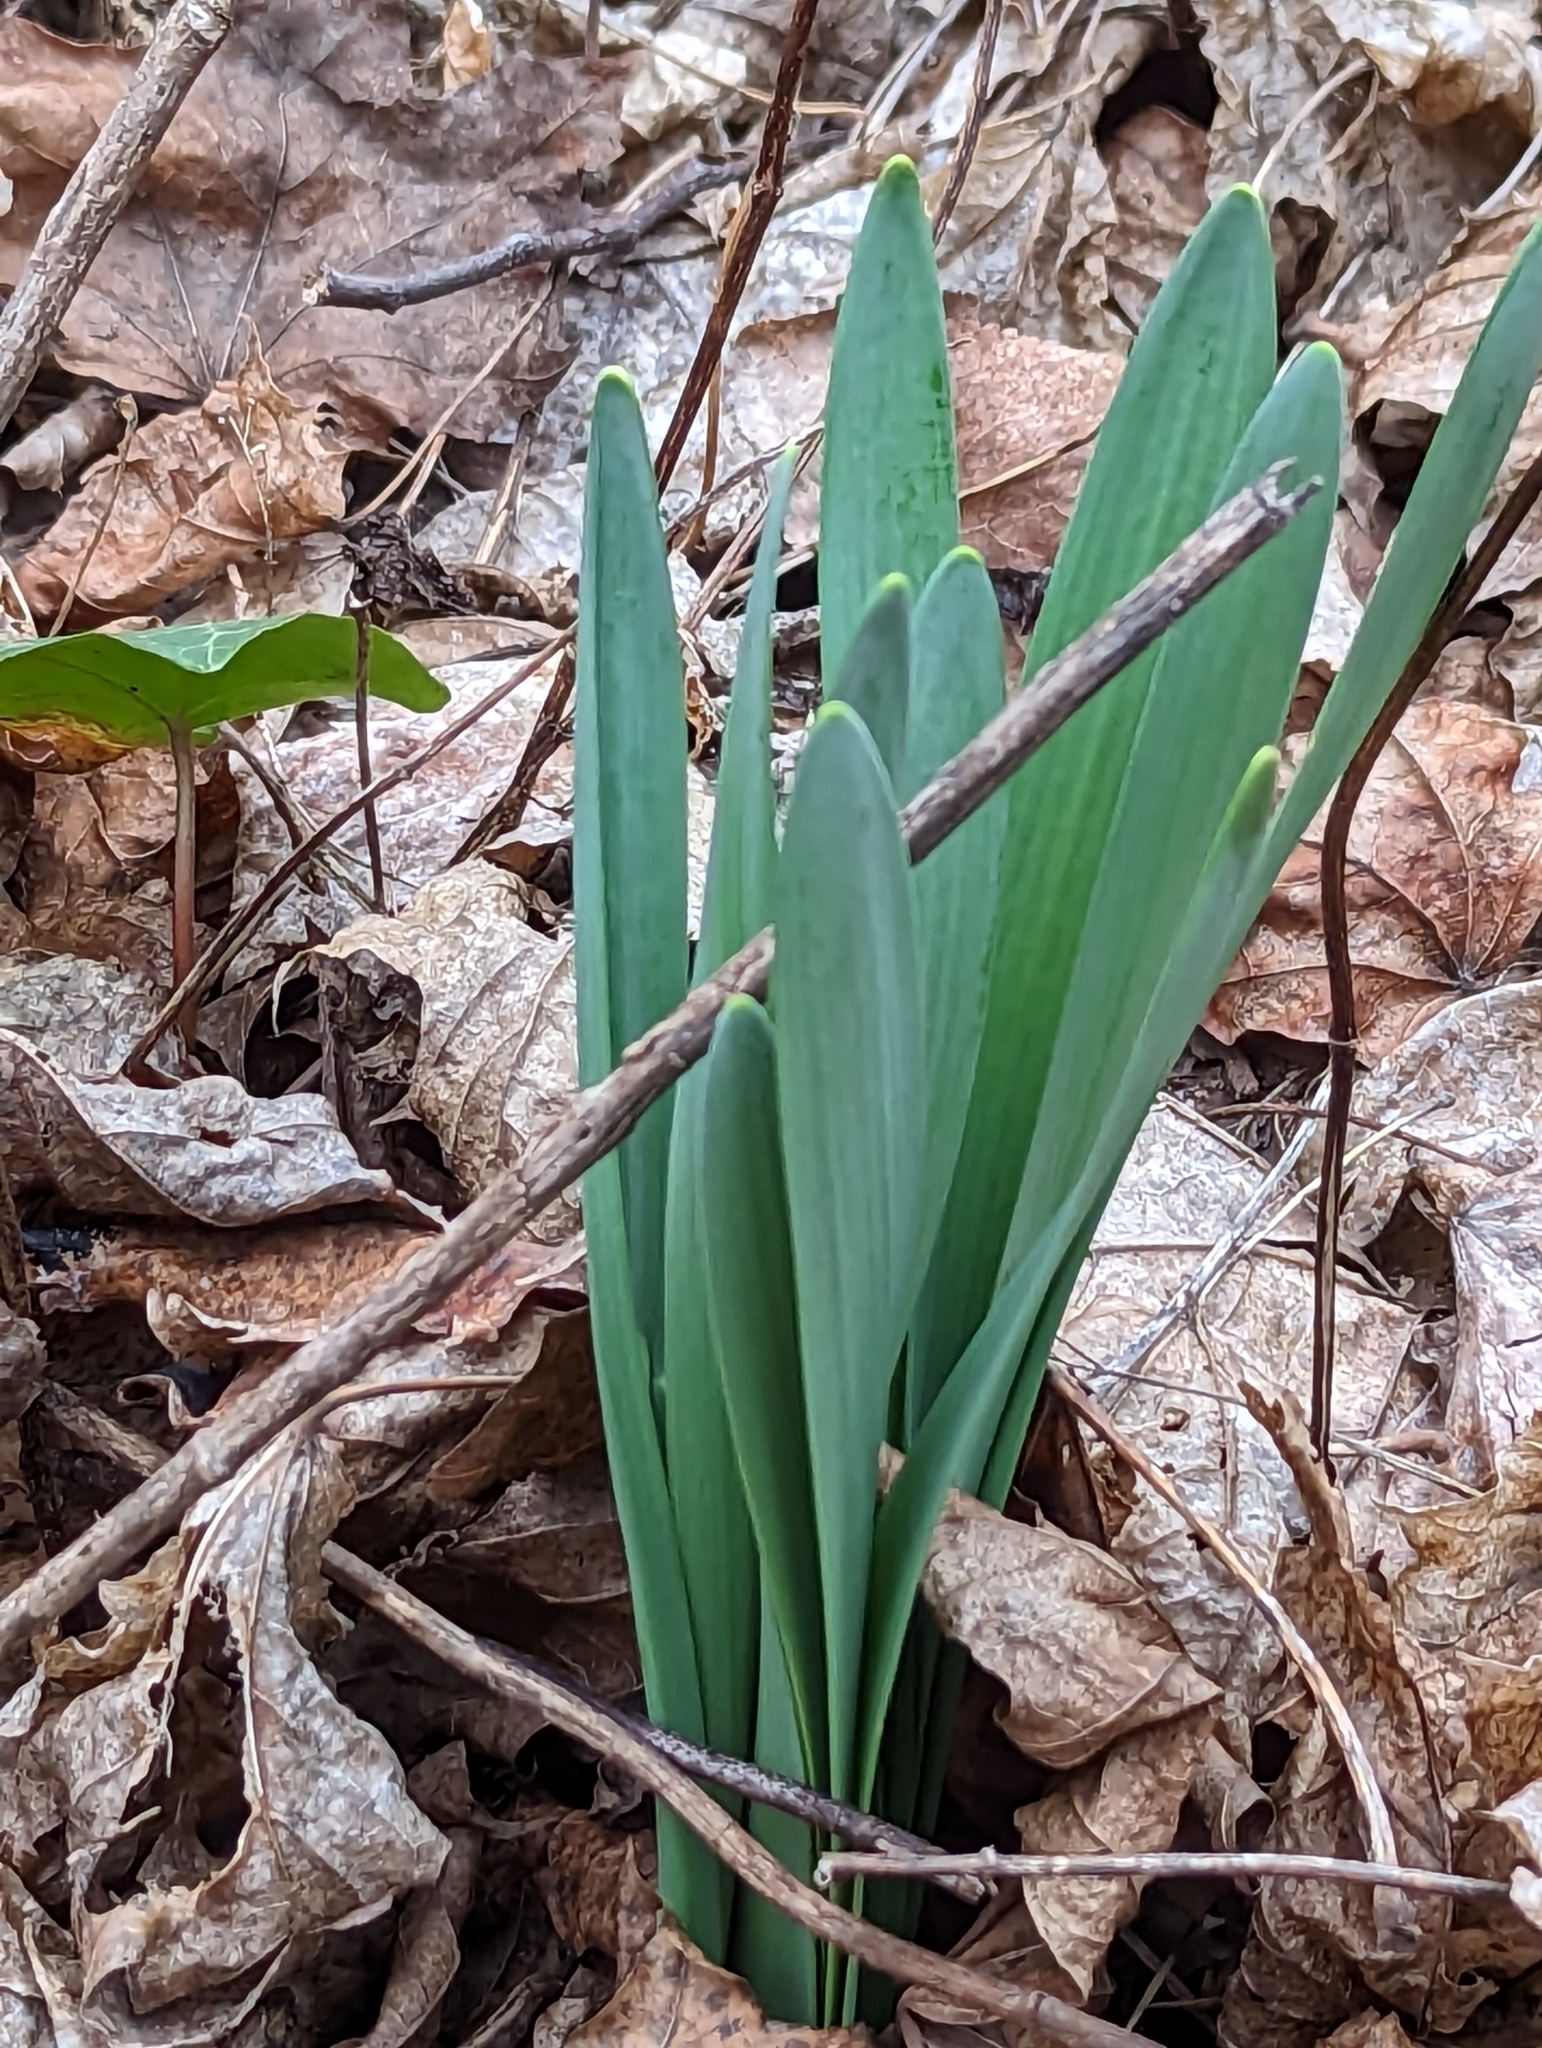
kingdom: Plantae
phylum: Tracheophyta
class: Liliopsida
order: Asparagales
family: Amaryllidaceae
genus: Narcissus
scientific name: Narcissus
